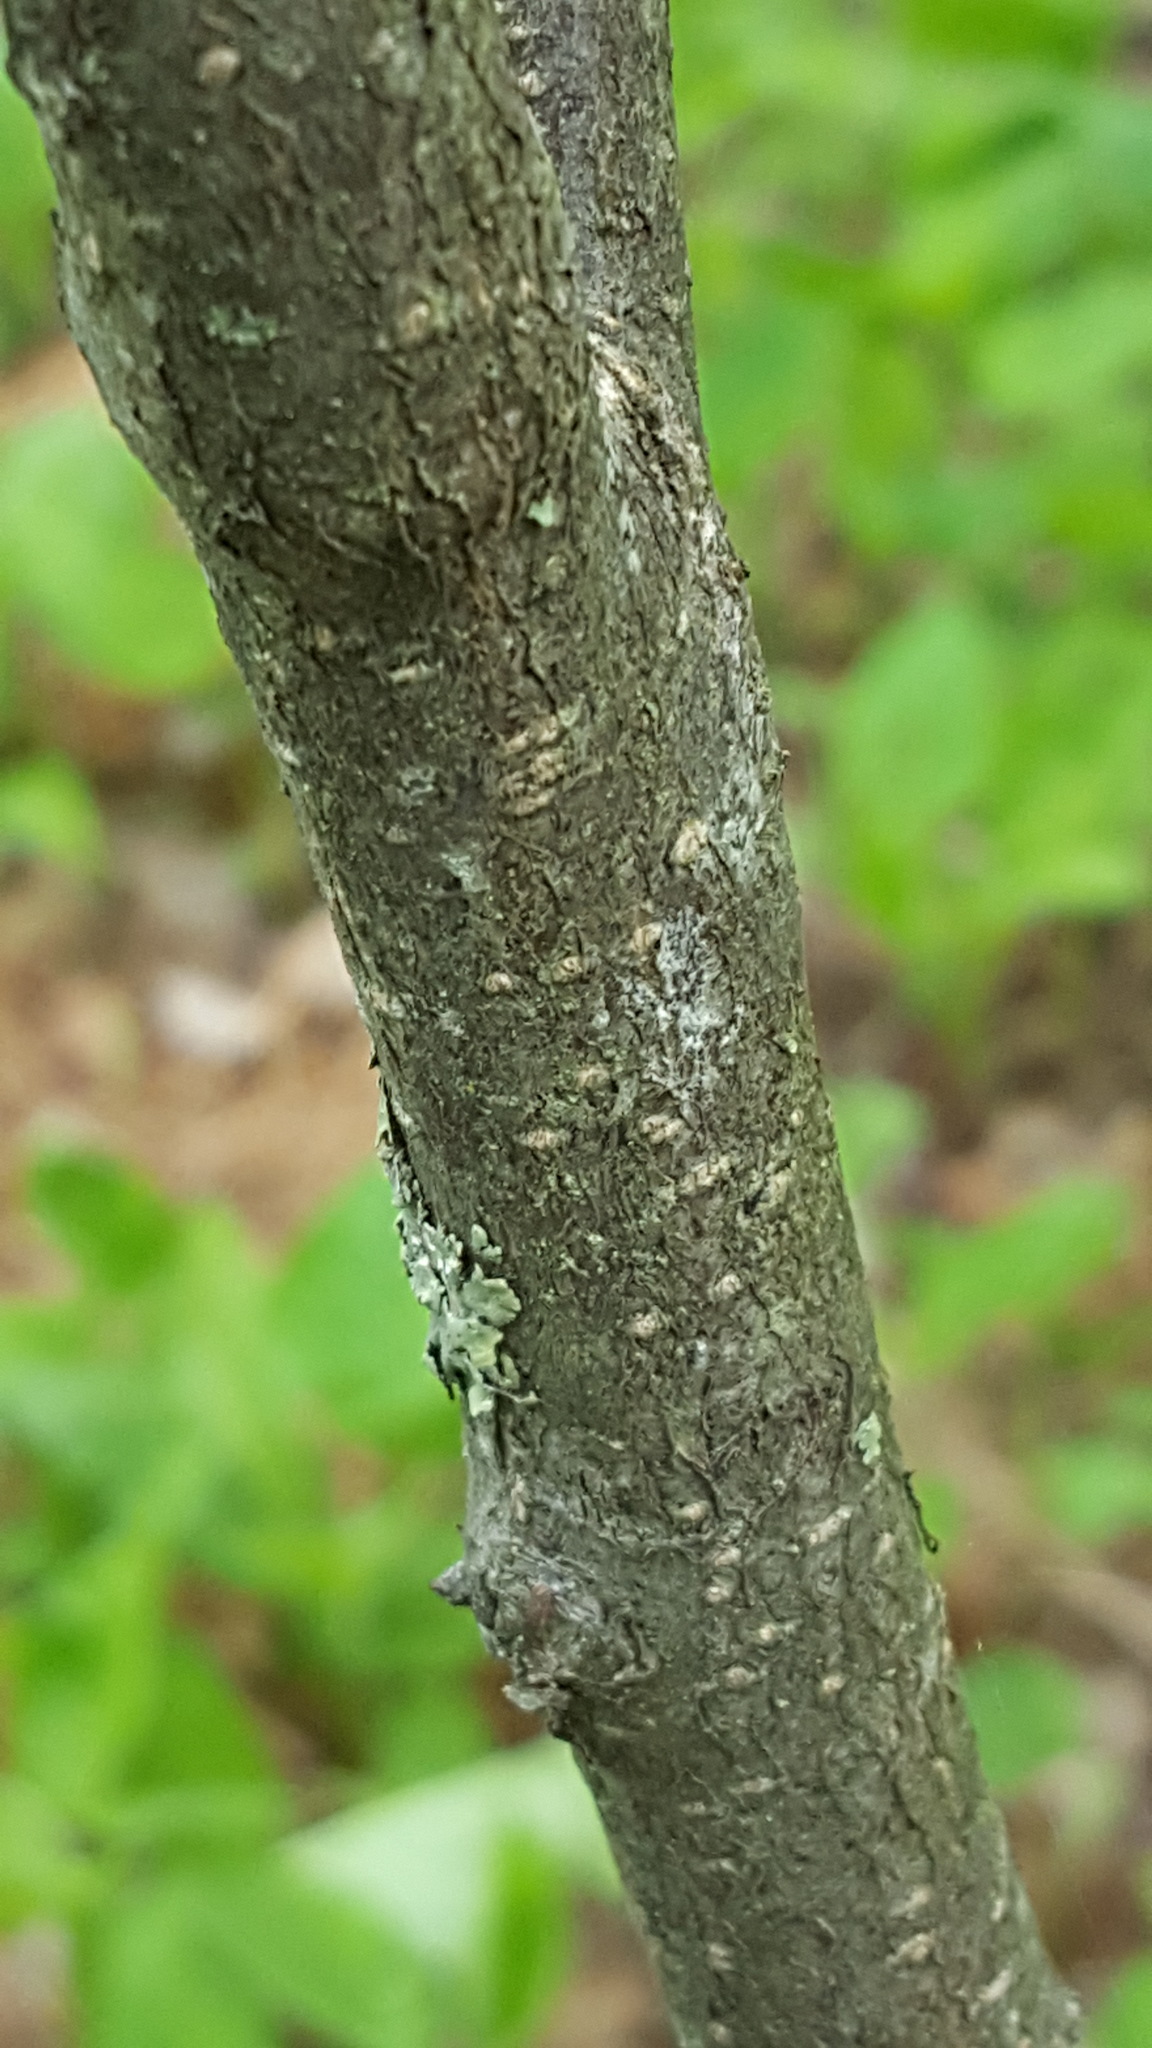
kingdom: Plantae
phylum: Tracheophyta
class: Magnoliopsida
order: Rosales
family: Rosaceae
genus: Prunus
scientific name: Prunus virginiana
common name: Chokecherry
